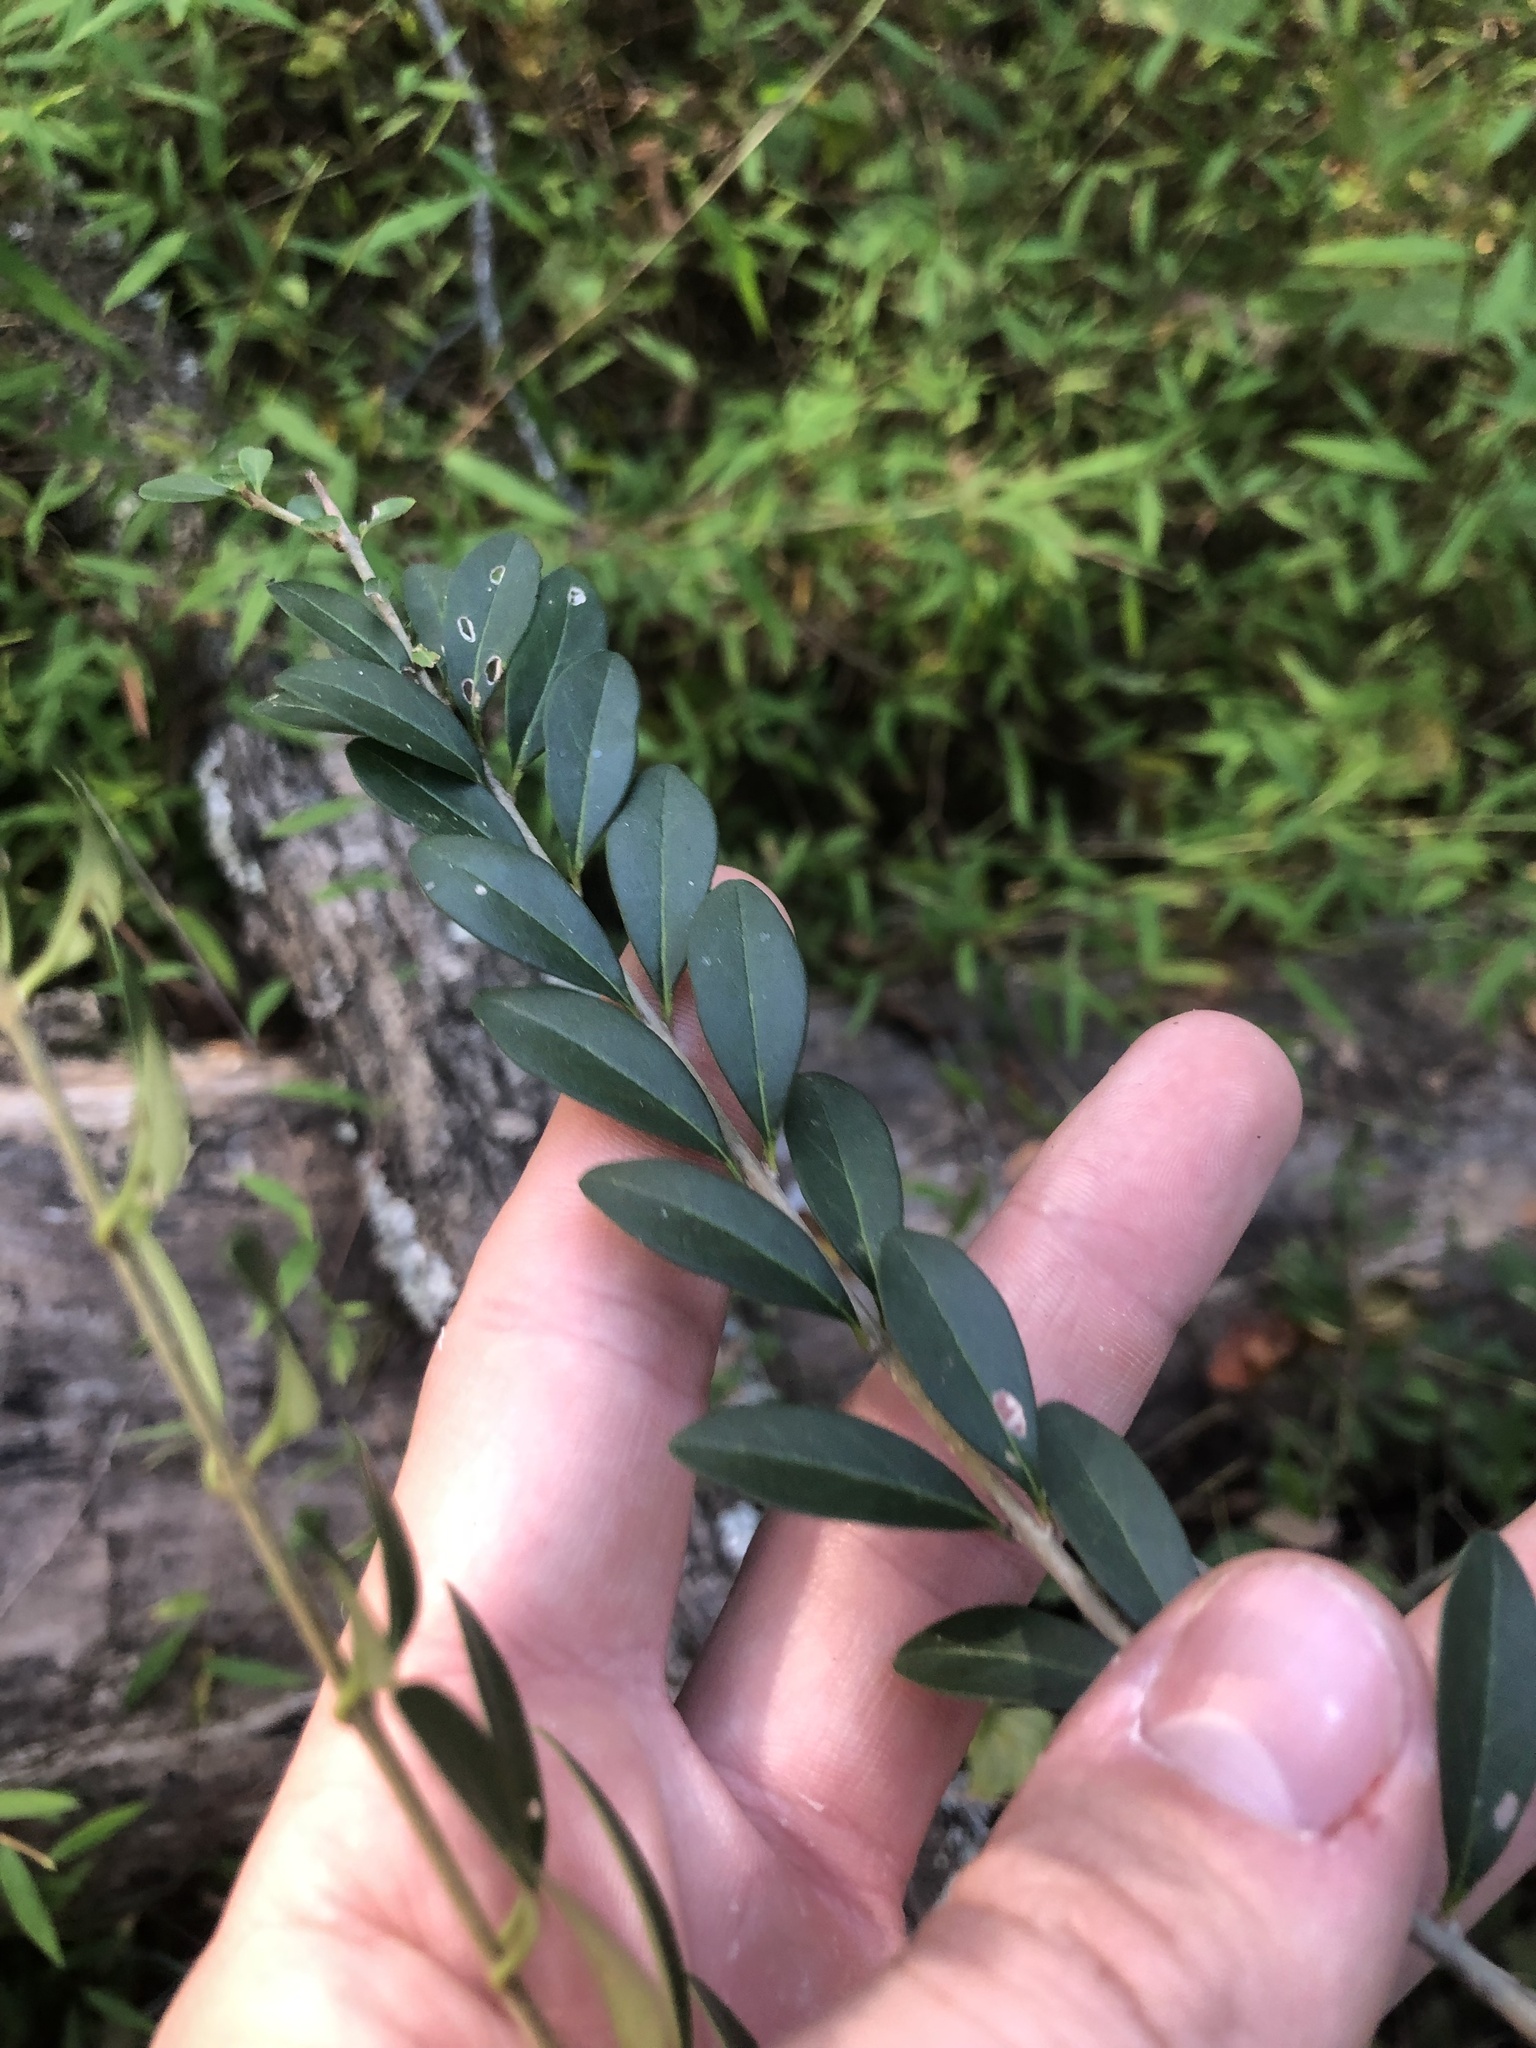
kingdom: Plantae
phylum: Tracheophyta
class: Magnoliopsida
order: Lamiales
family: Oleaceae
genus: Ligustrum
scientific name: Ligustrum quihoui
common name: Waxyleaf privet
